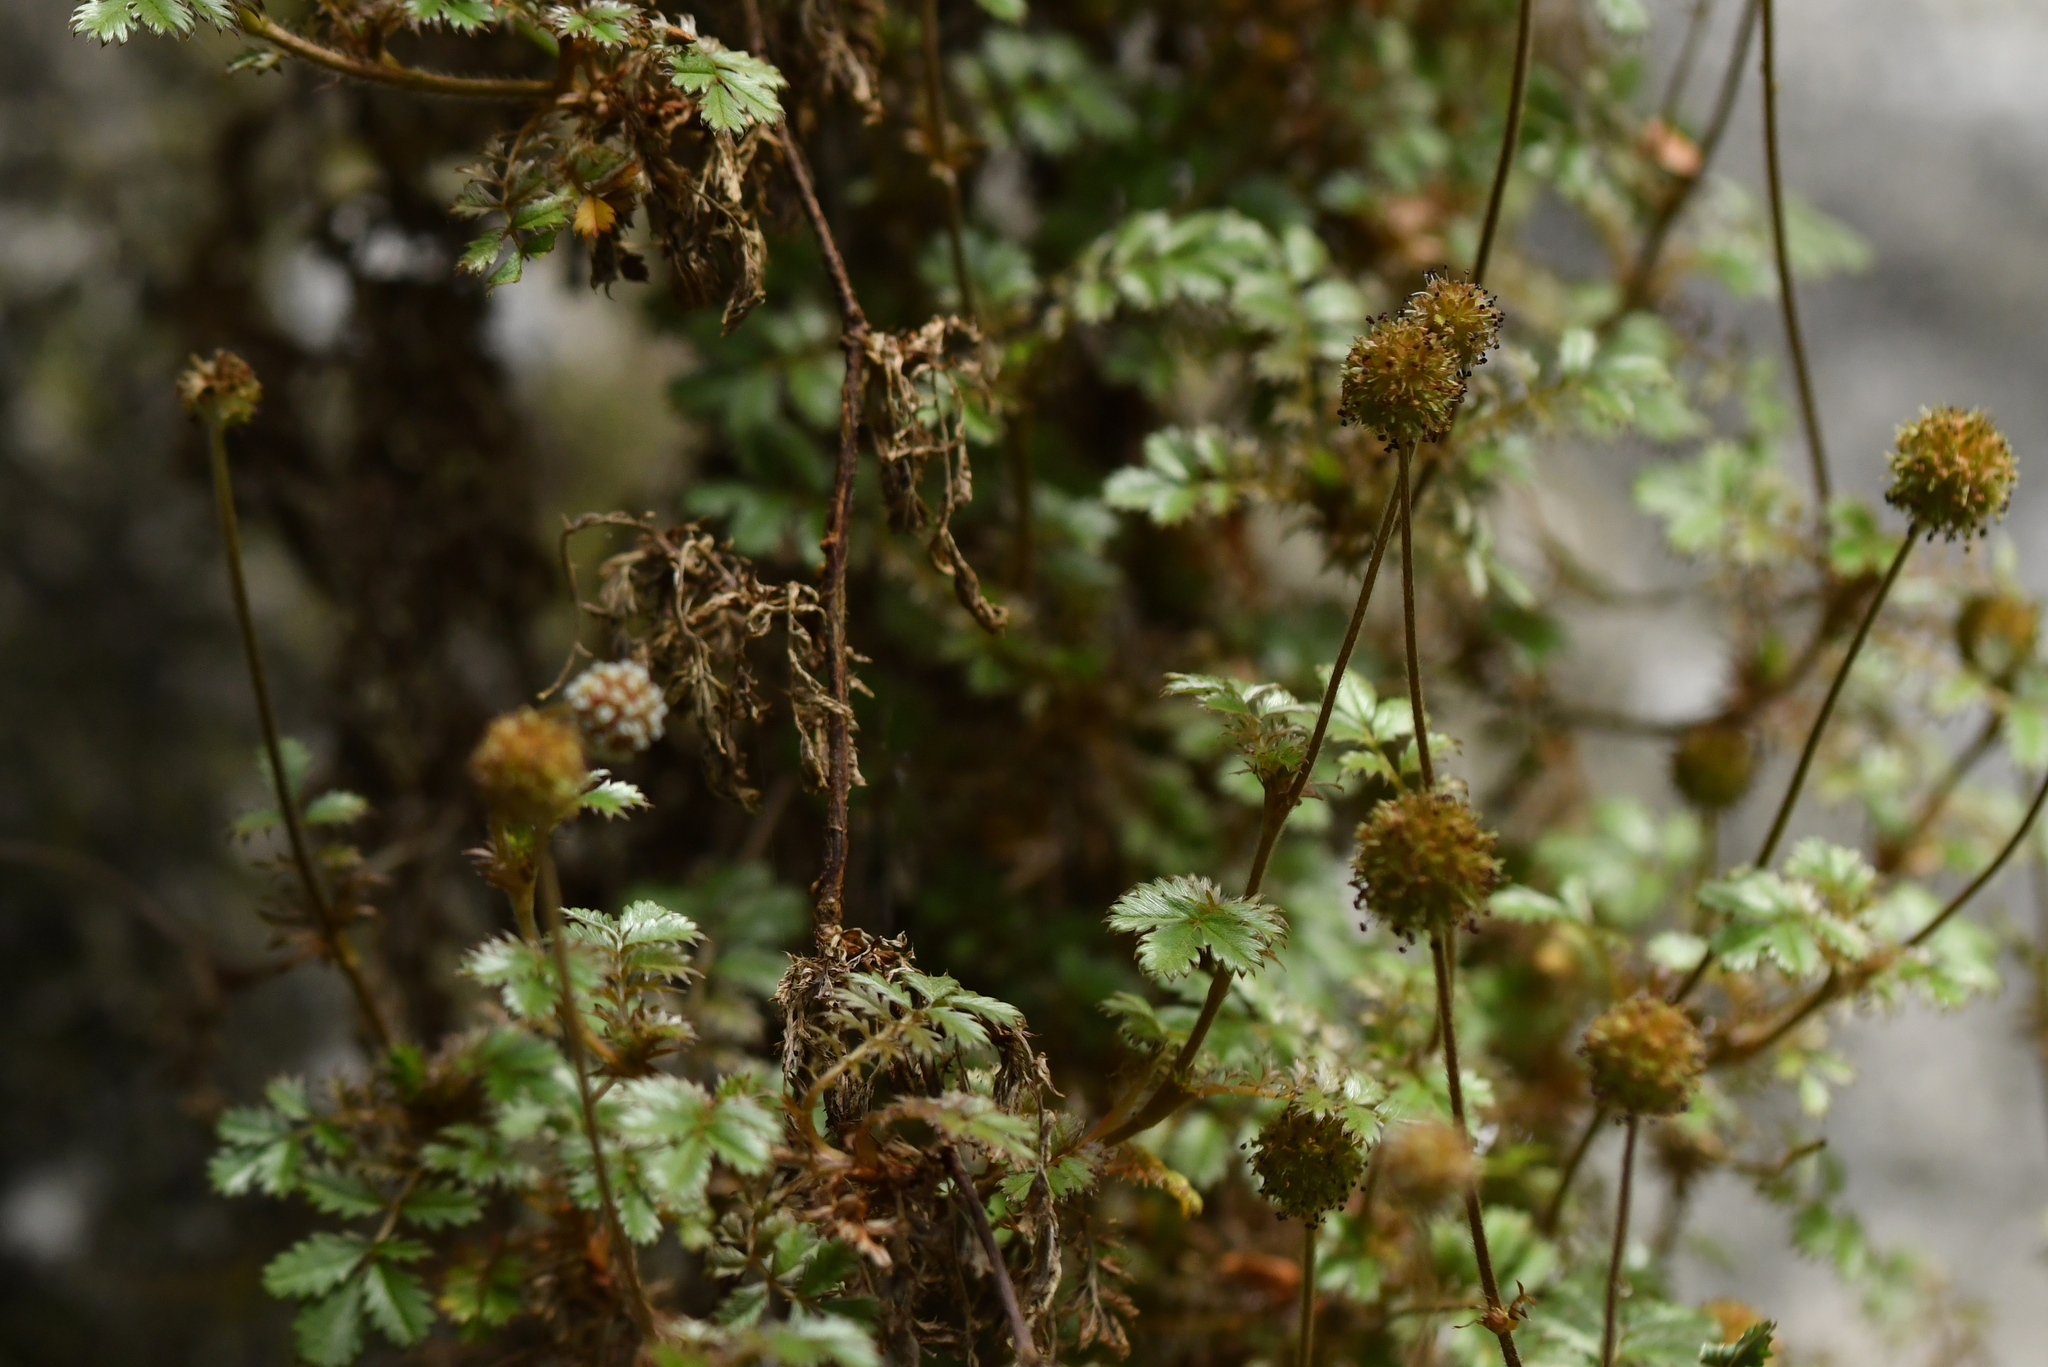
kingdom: Plantae
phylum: Tracheophyta
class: Magnoliopsida
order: Rosales
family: Rosaceae
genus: Acaena
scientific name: Acaena anserinifolia
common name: Bronze pirri-pirri-bur
